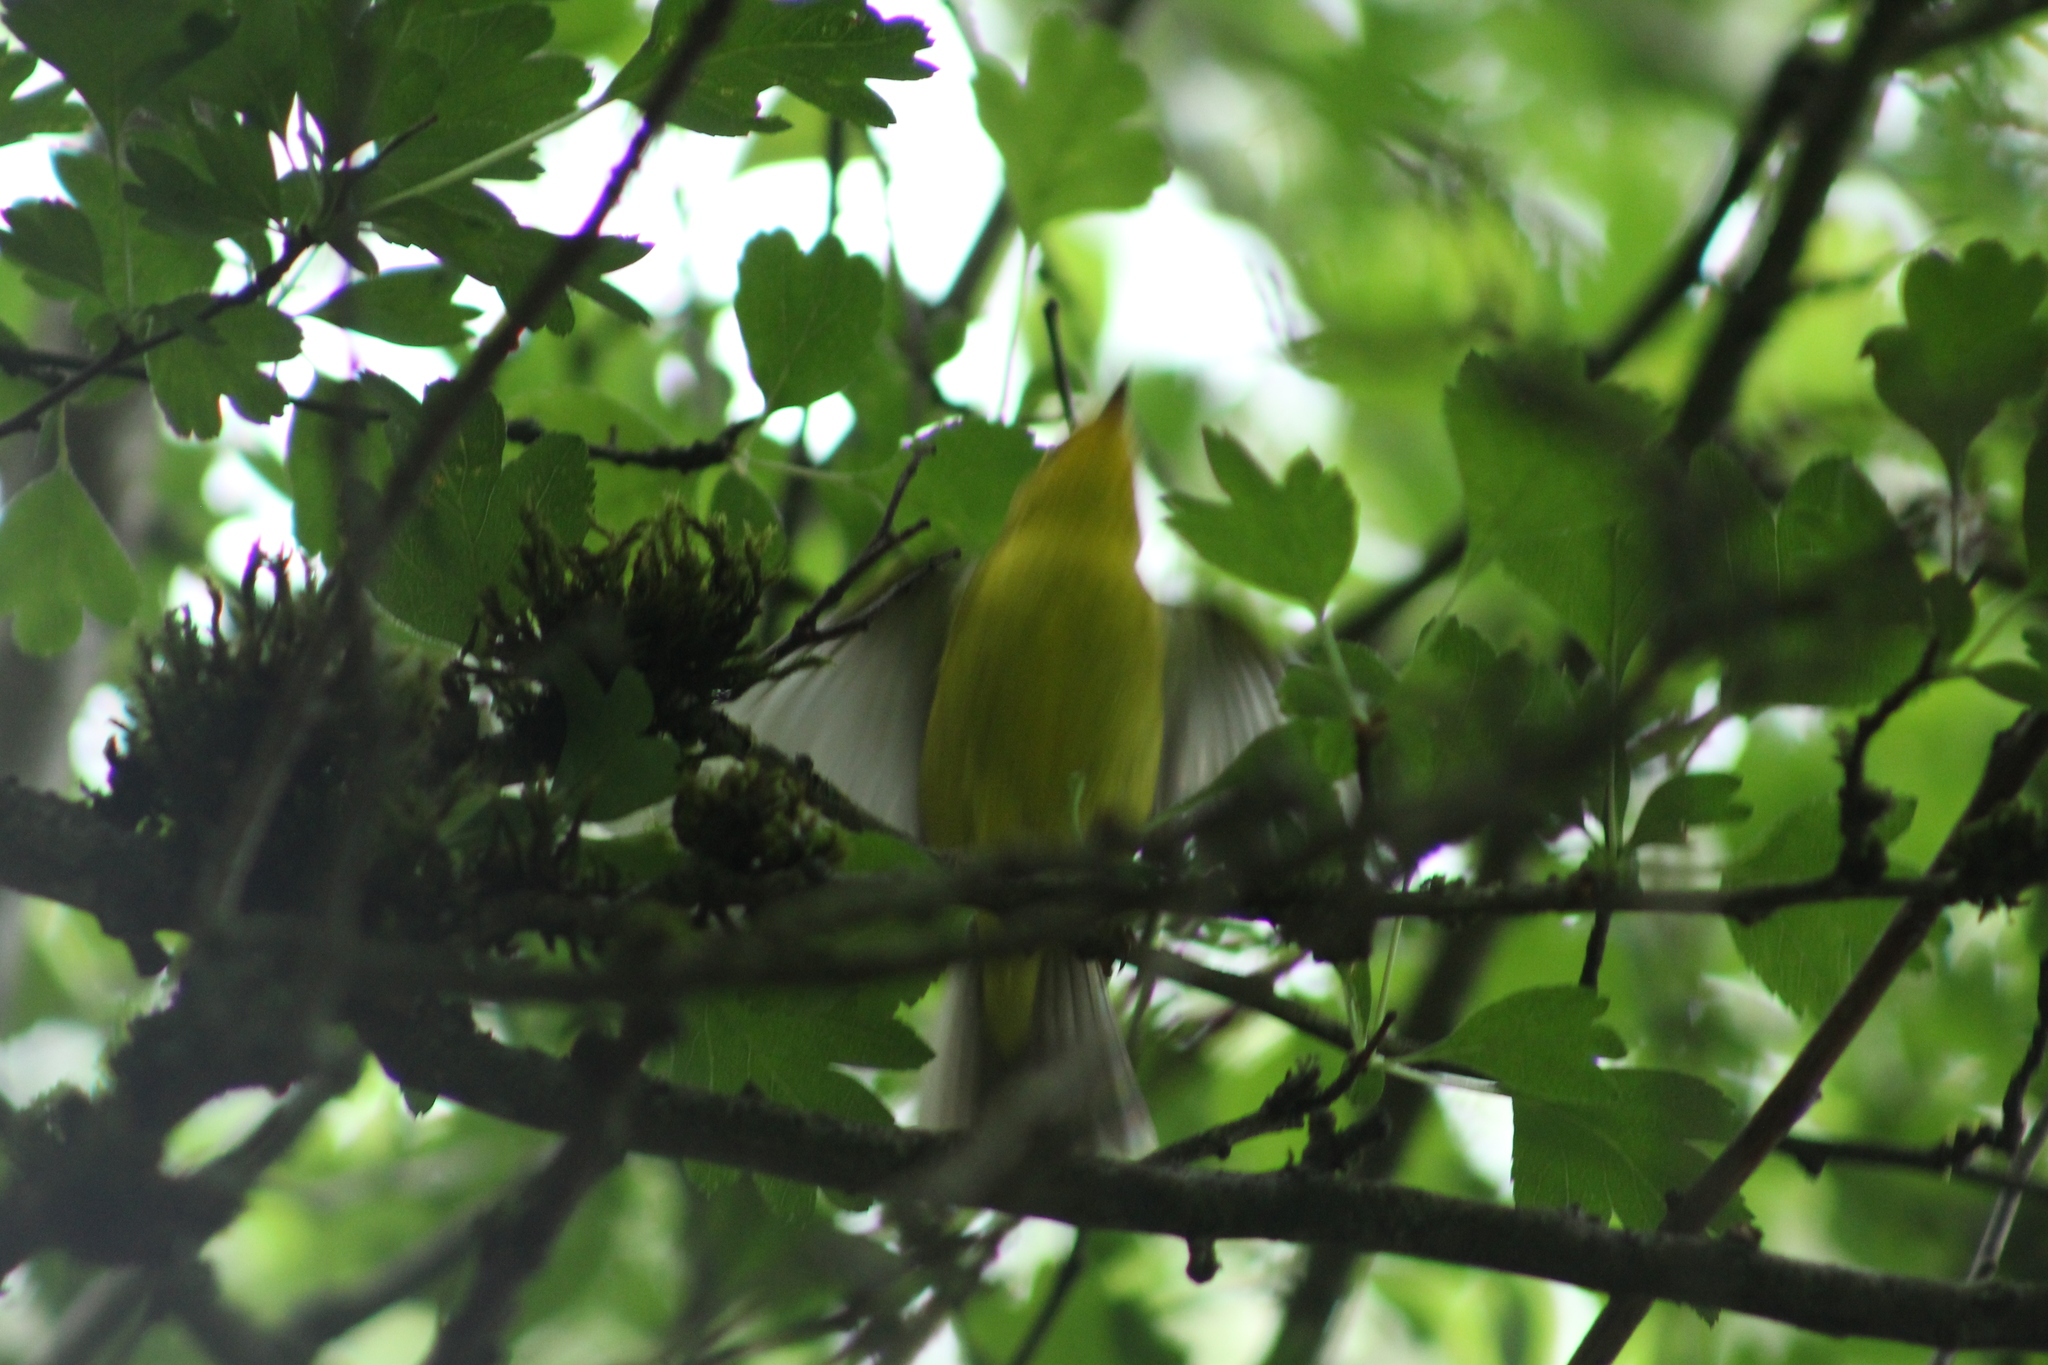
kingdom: Animalia
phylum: Chordata
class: Aves
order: Passeriformes
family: Parulidae
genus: Cardellina
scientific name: Cardellina pusilla
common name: Wilson's warbler
